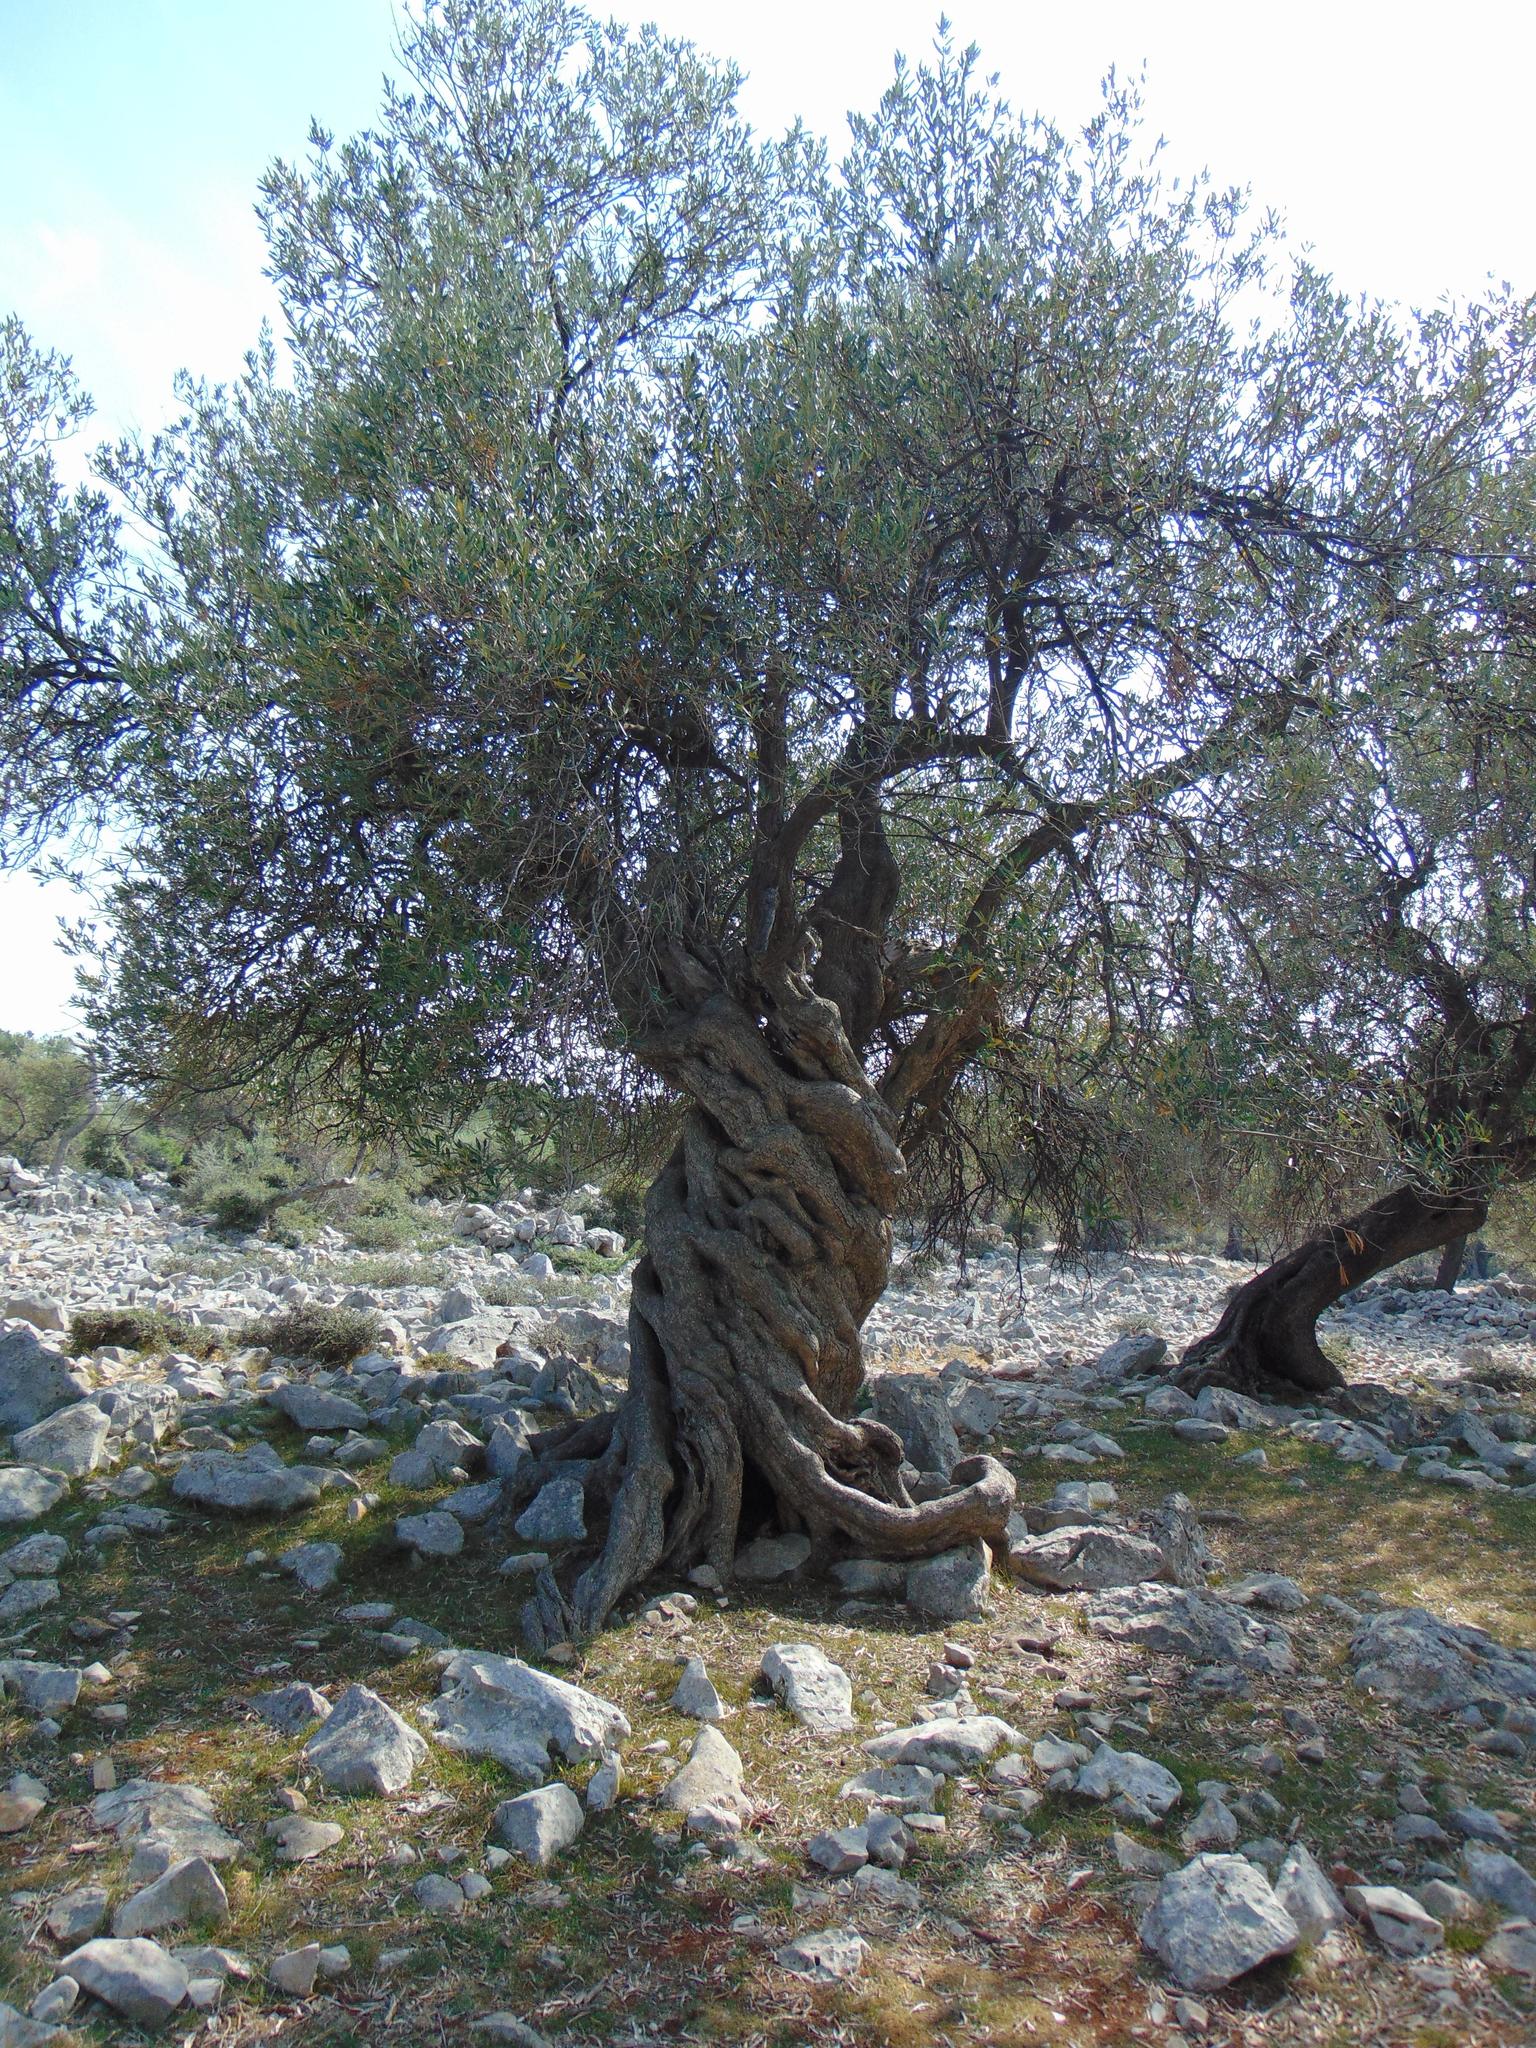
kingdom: Plantae
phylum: Tracheophyta
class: Magnoliopsida
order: Lamiales
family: Oleaceae
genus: Olea
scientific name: Olea europaea
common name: Olive
